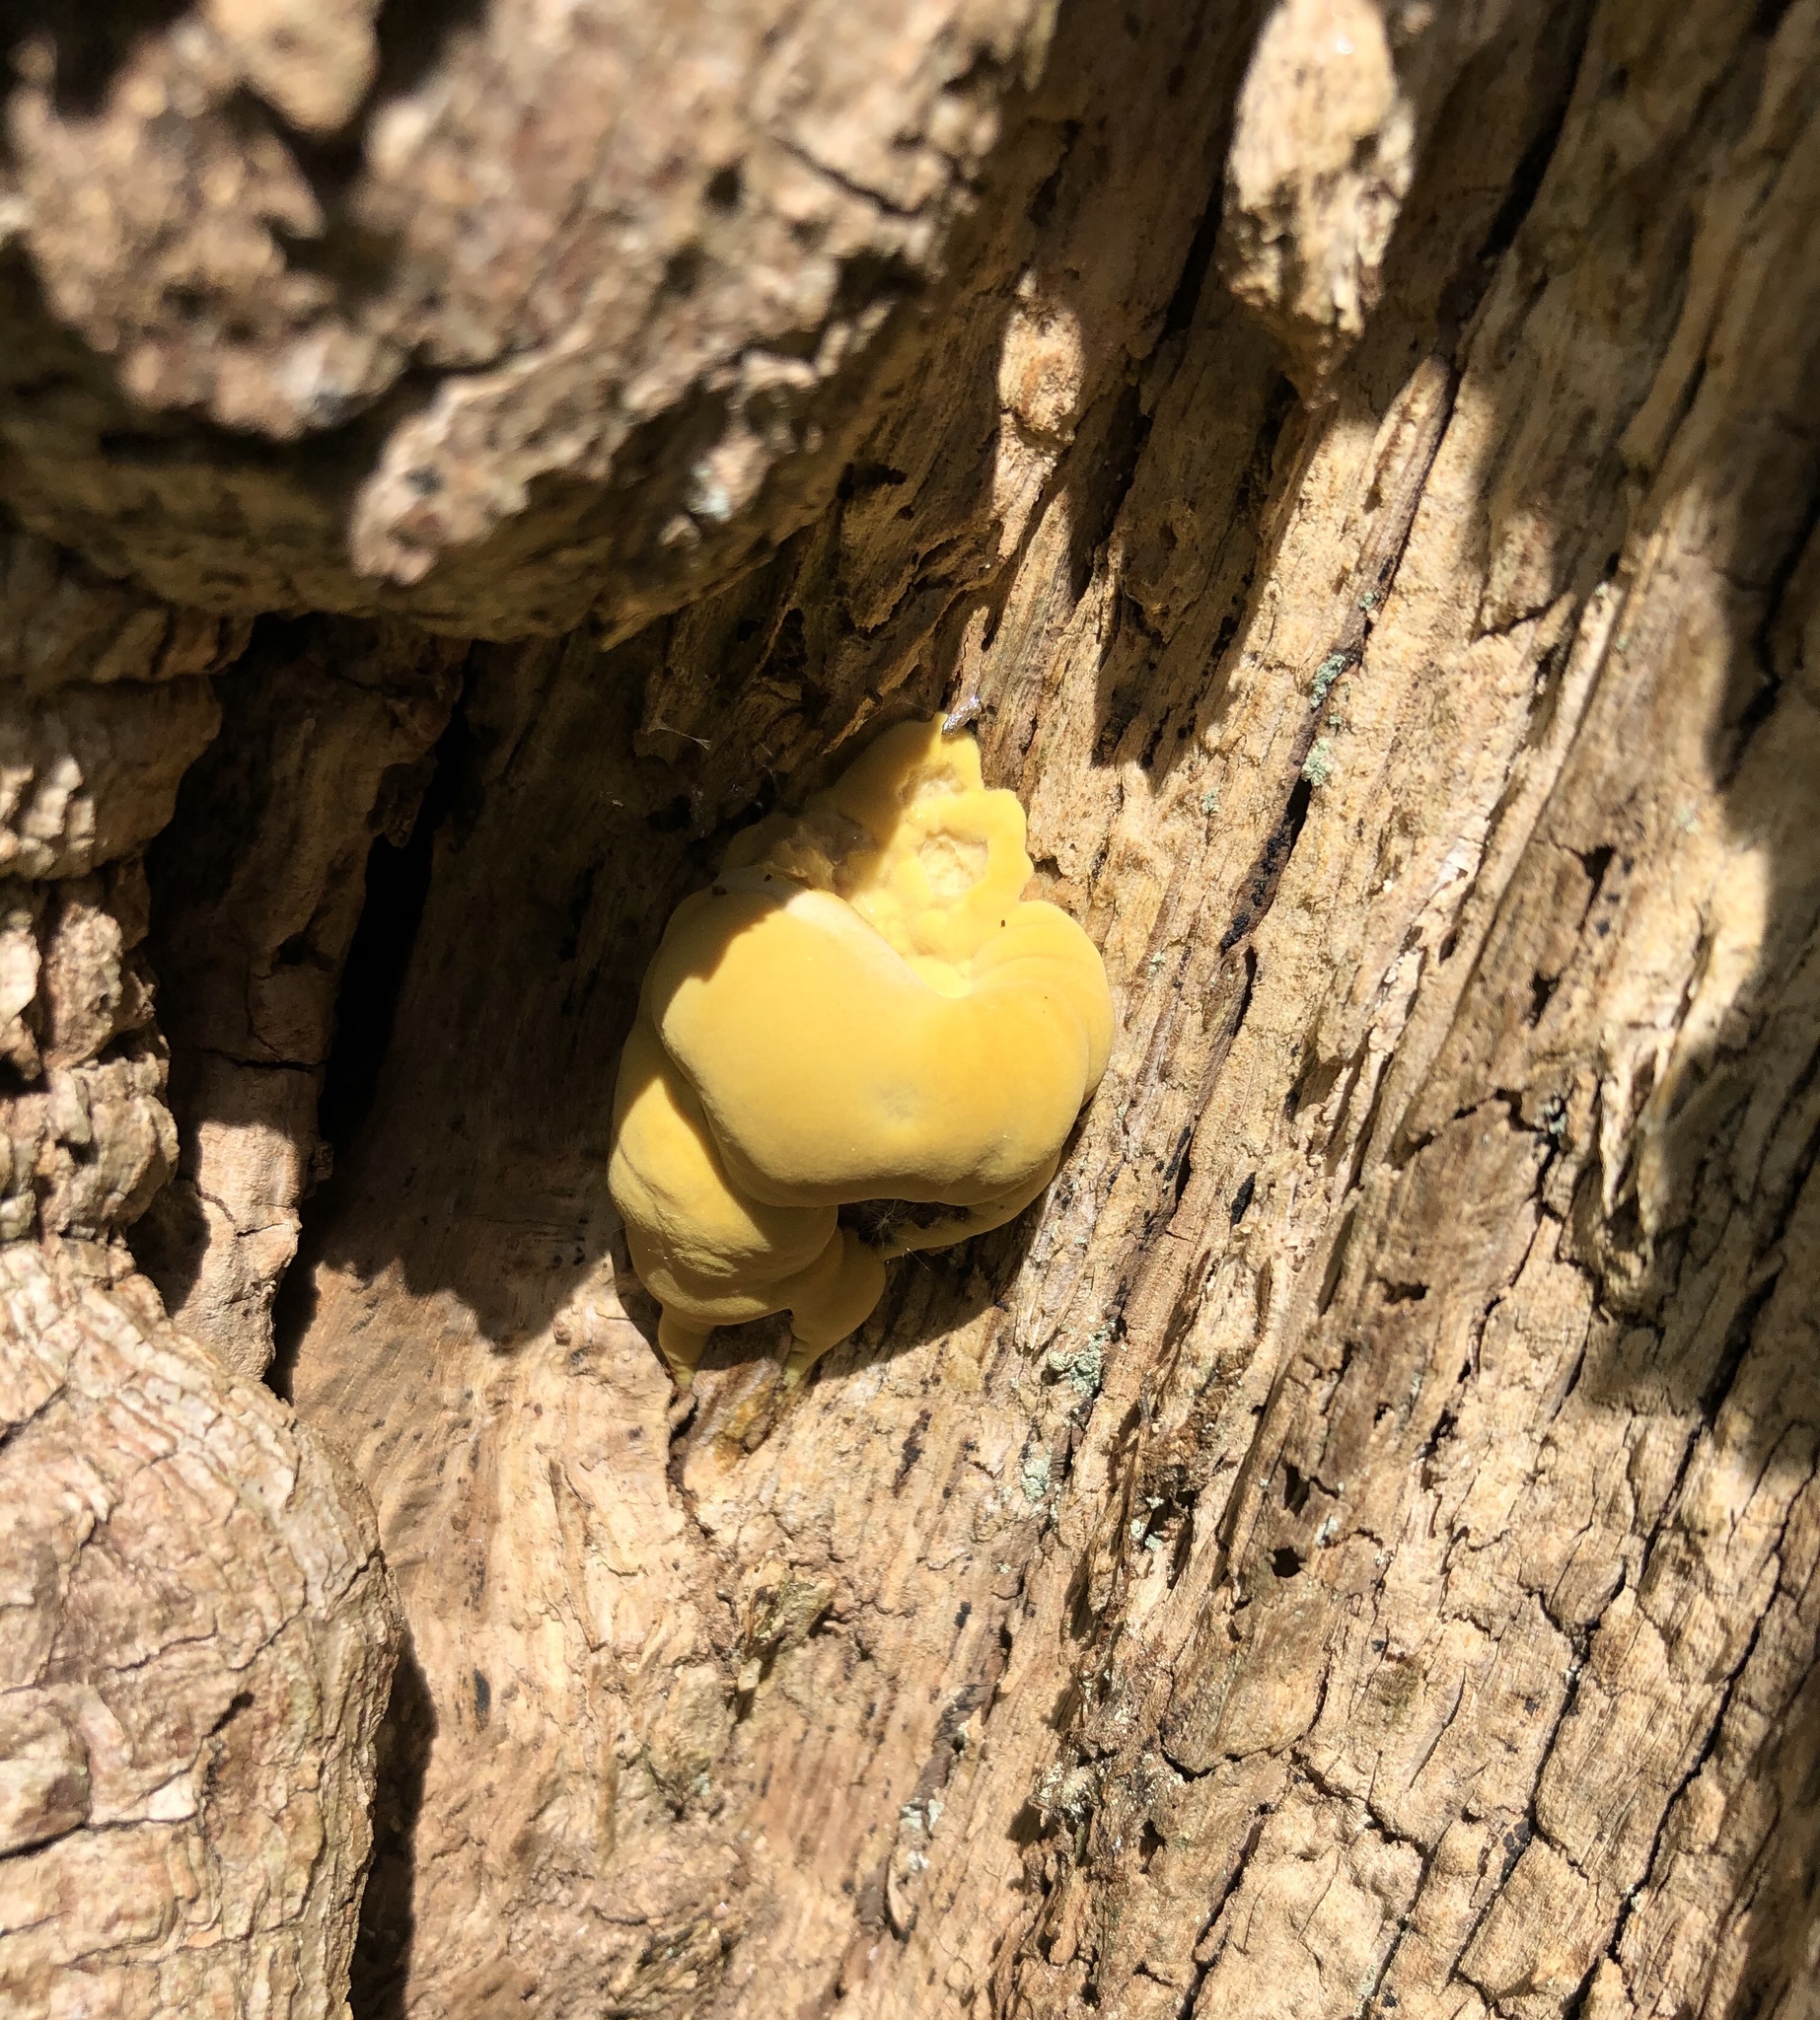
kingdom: Fungi
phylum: Basidiomycota
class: Agaricomycetes
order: Polyporales
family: Laetiporaceae
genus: Laetiporus
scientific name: Laetiporus sulphureus
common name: Chicken of the woods
